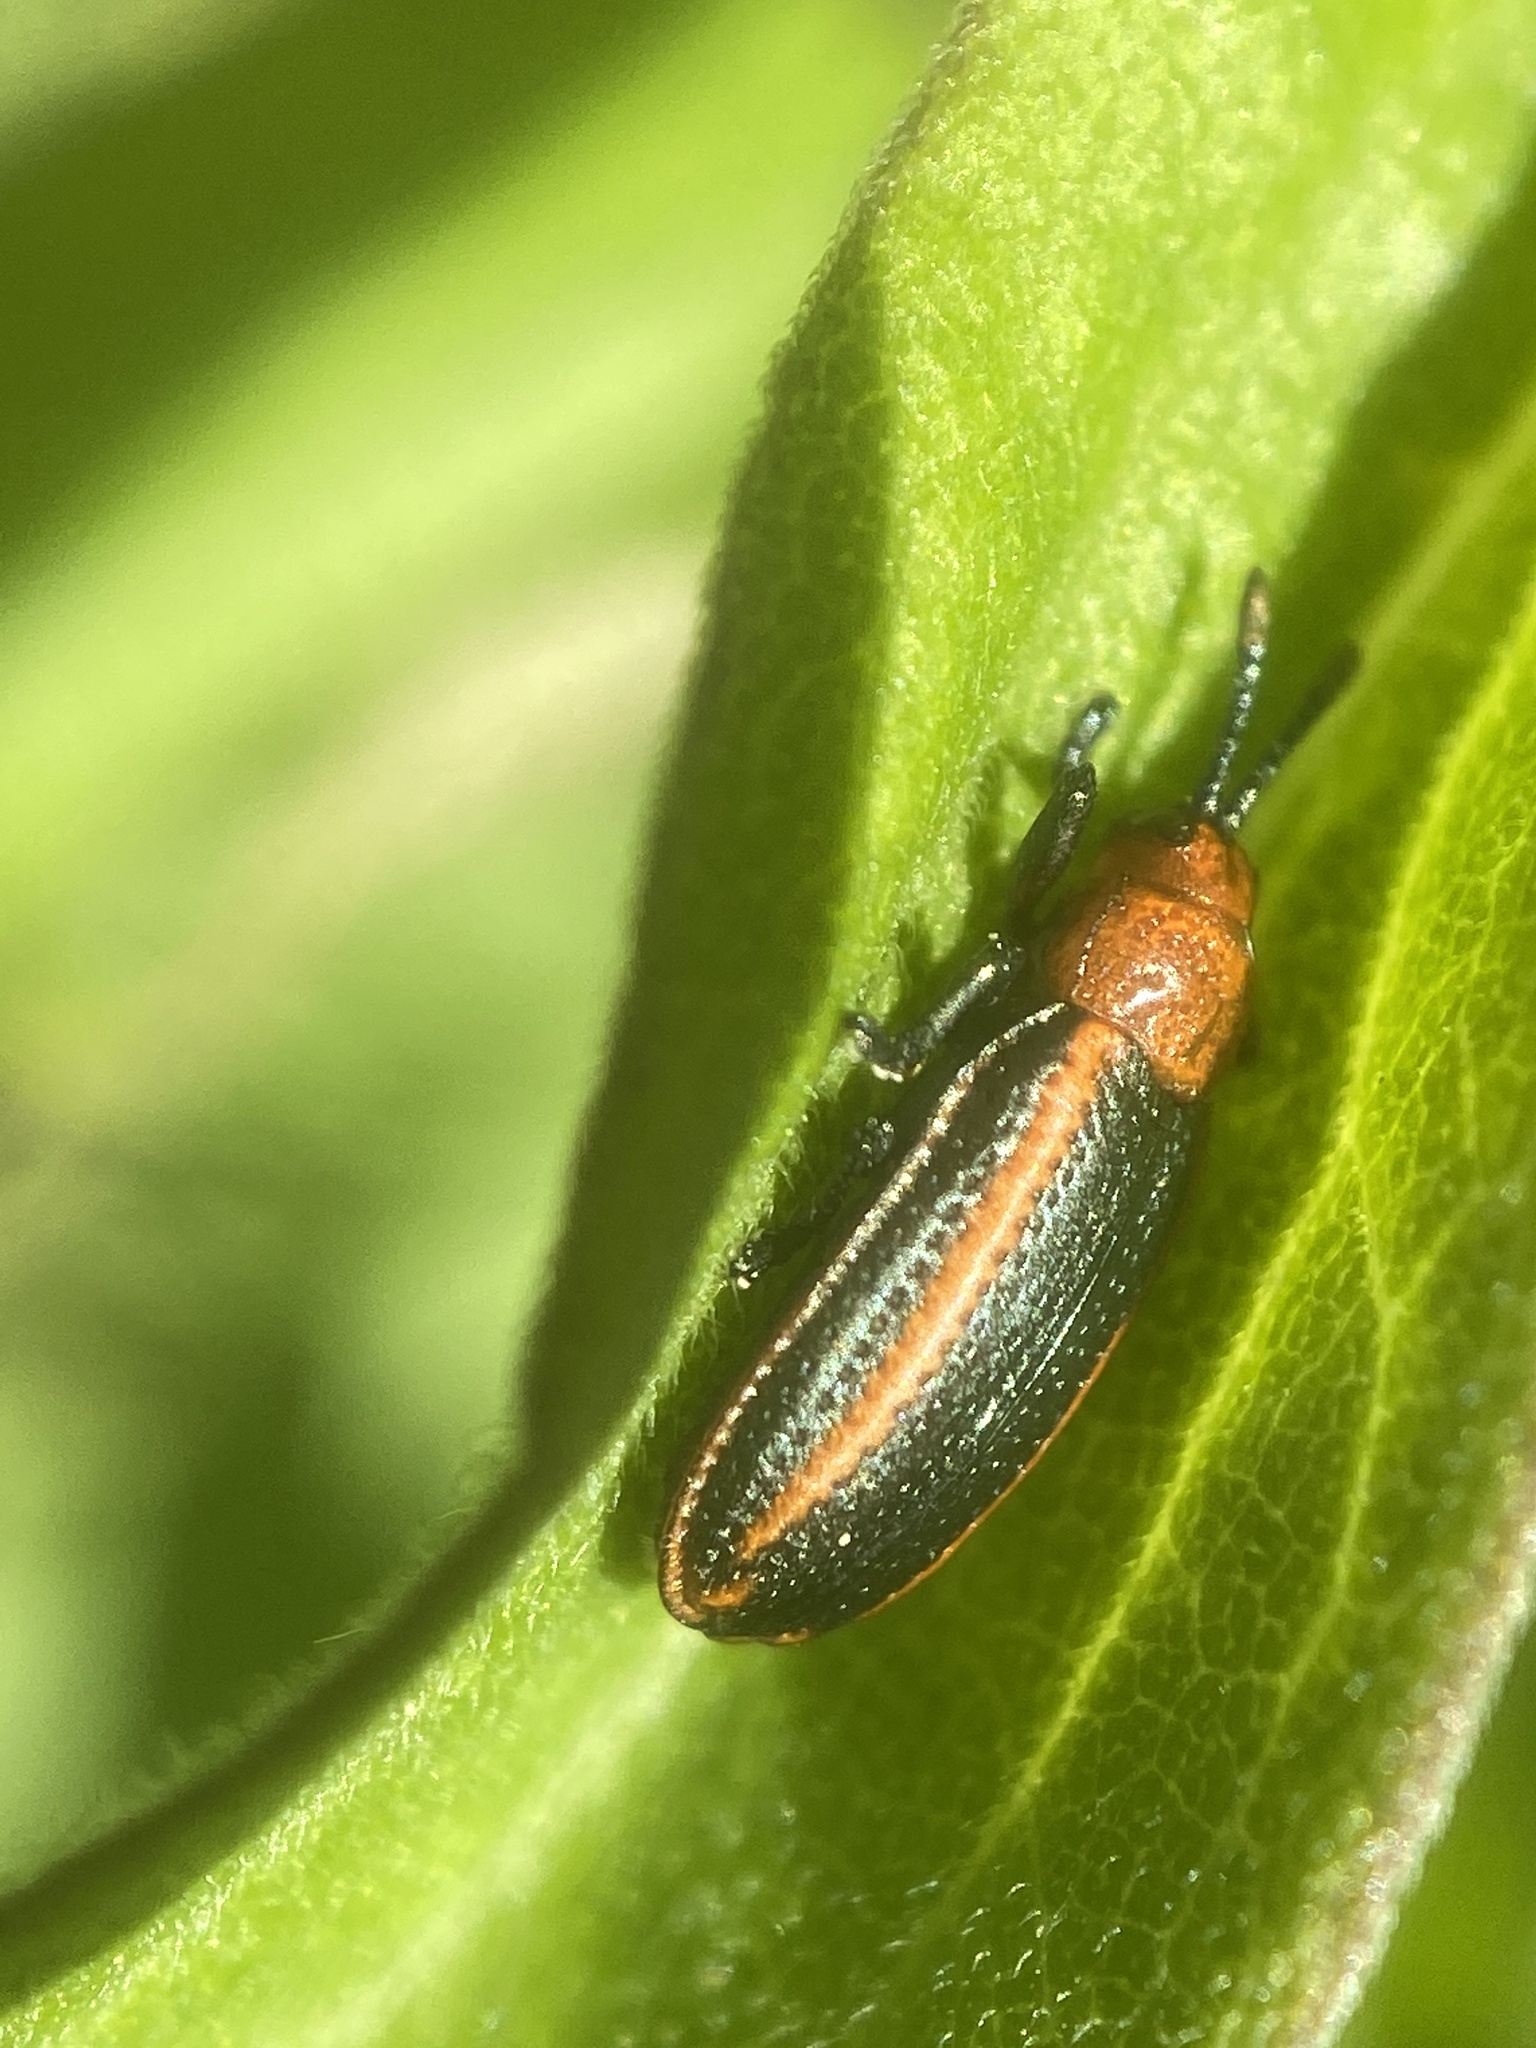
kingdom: Animalia
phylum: Arthropoda
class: Insecta
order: Coleoptera
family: Chrysomelidae
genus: Microrhopala
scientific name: Microrhopala vittata
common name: Goldenrod leaf miner beetle
